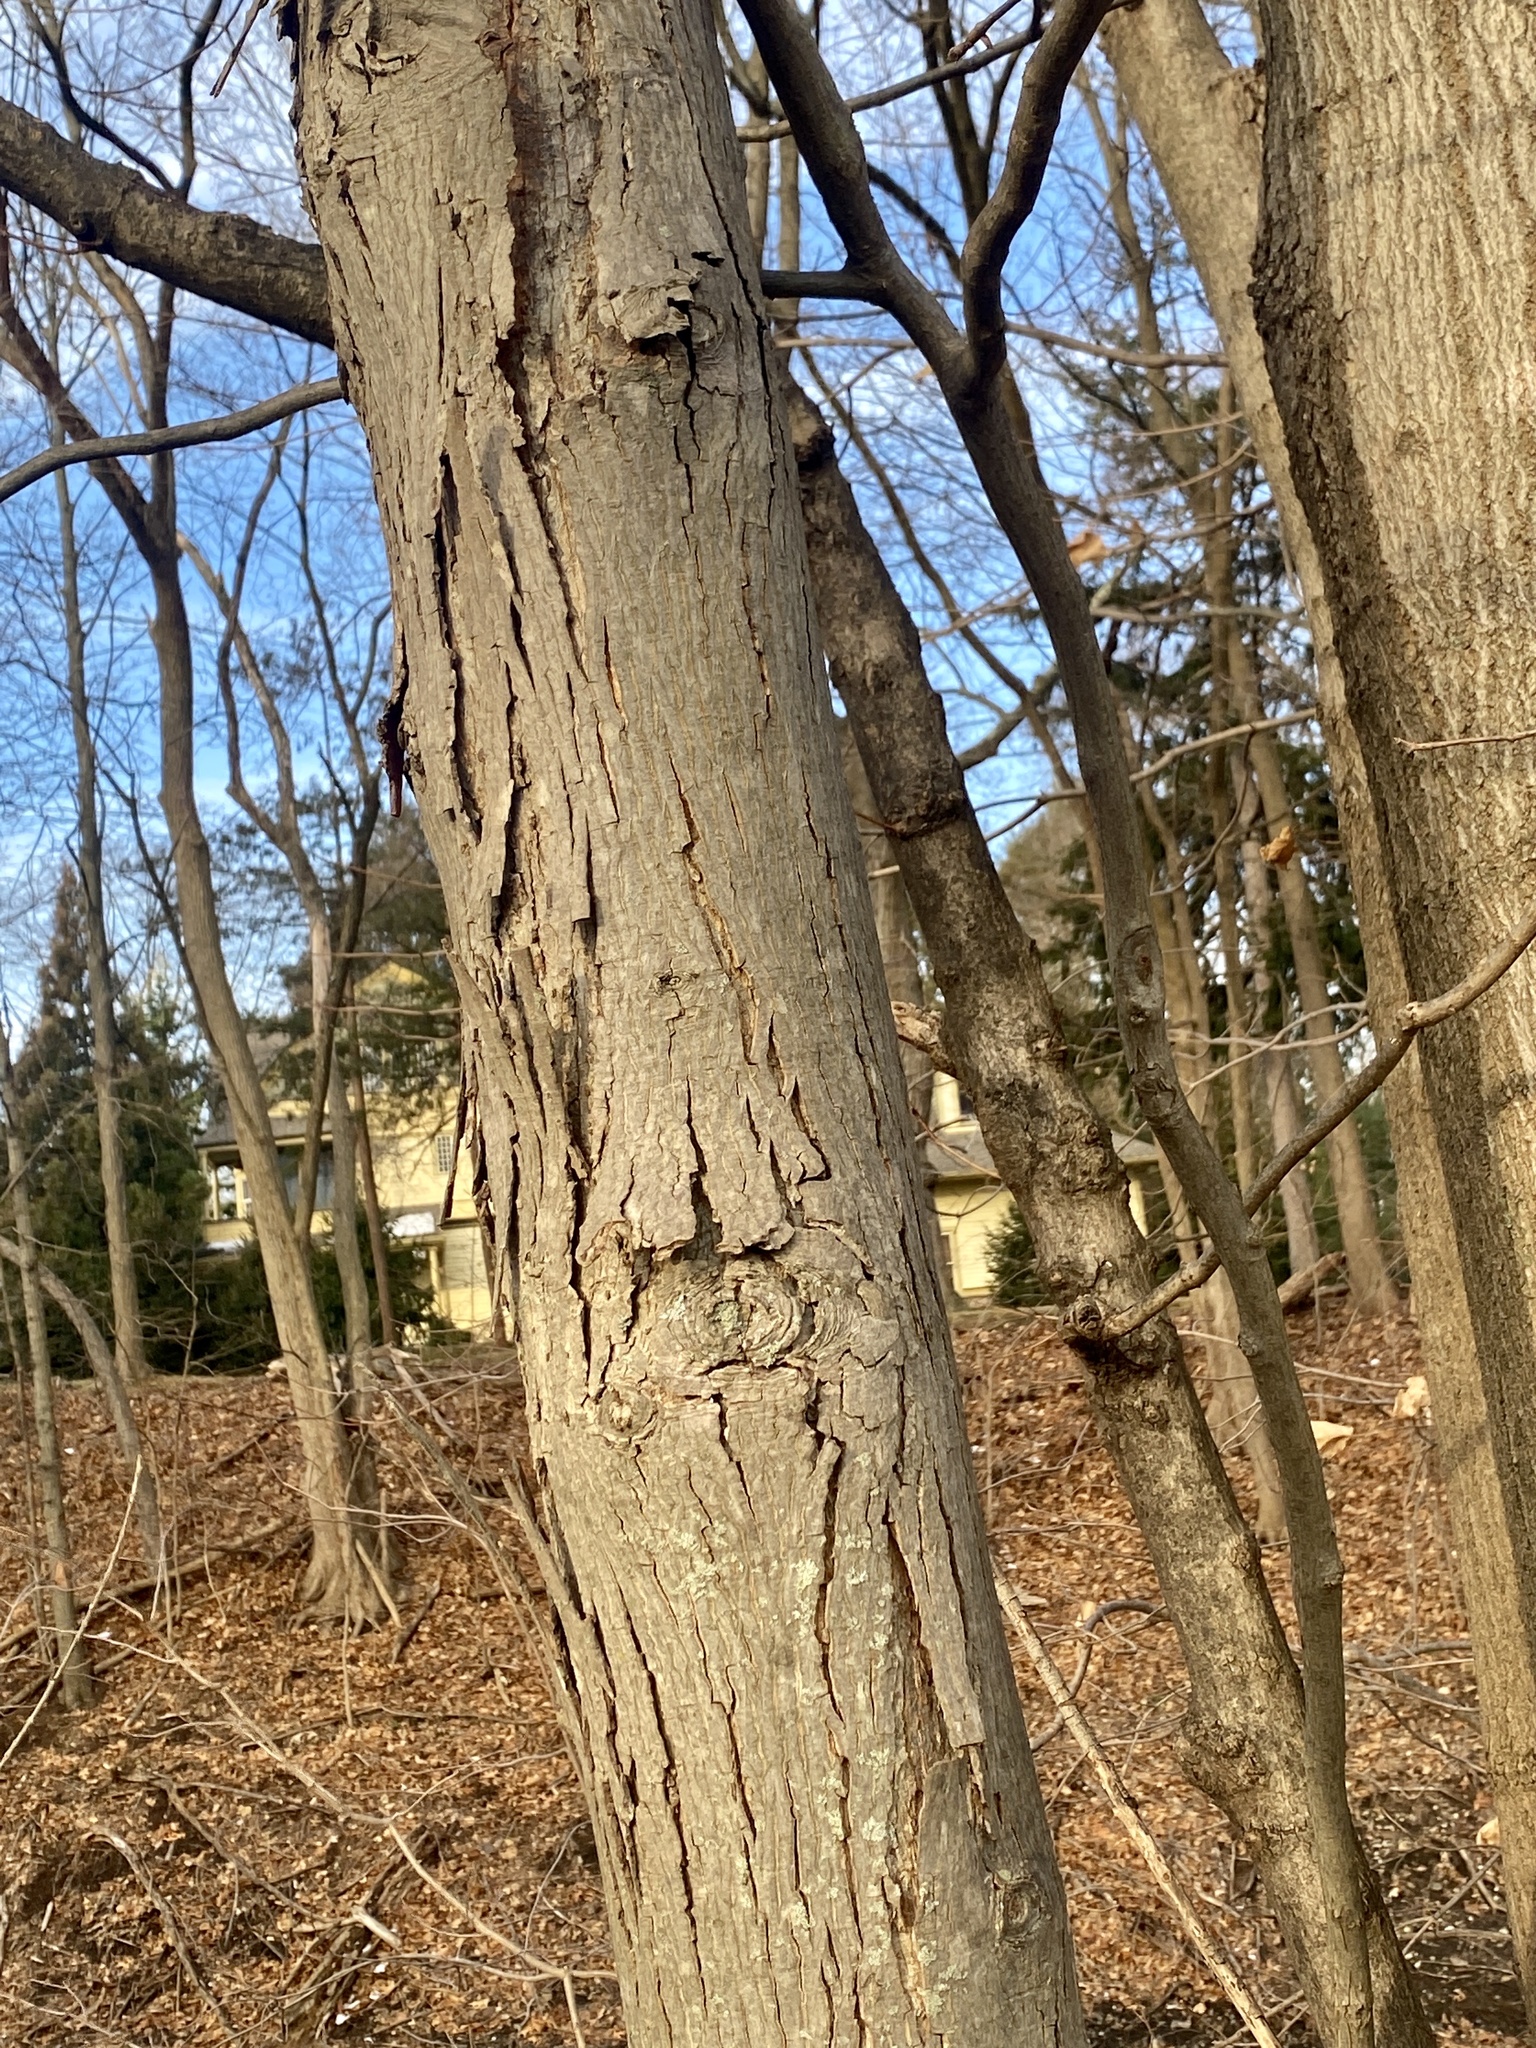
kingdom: Plantae
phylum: Tracheophyta
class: Magnoliopsida
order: Fagales
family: Juglandaceae
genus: Carya
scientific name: Carya ovata
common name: Shagbark hickory
